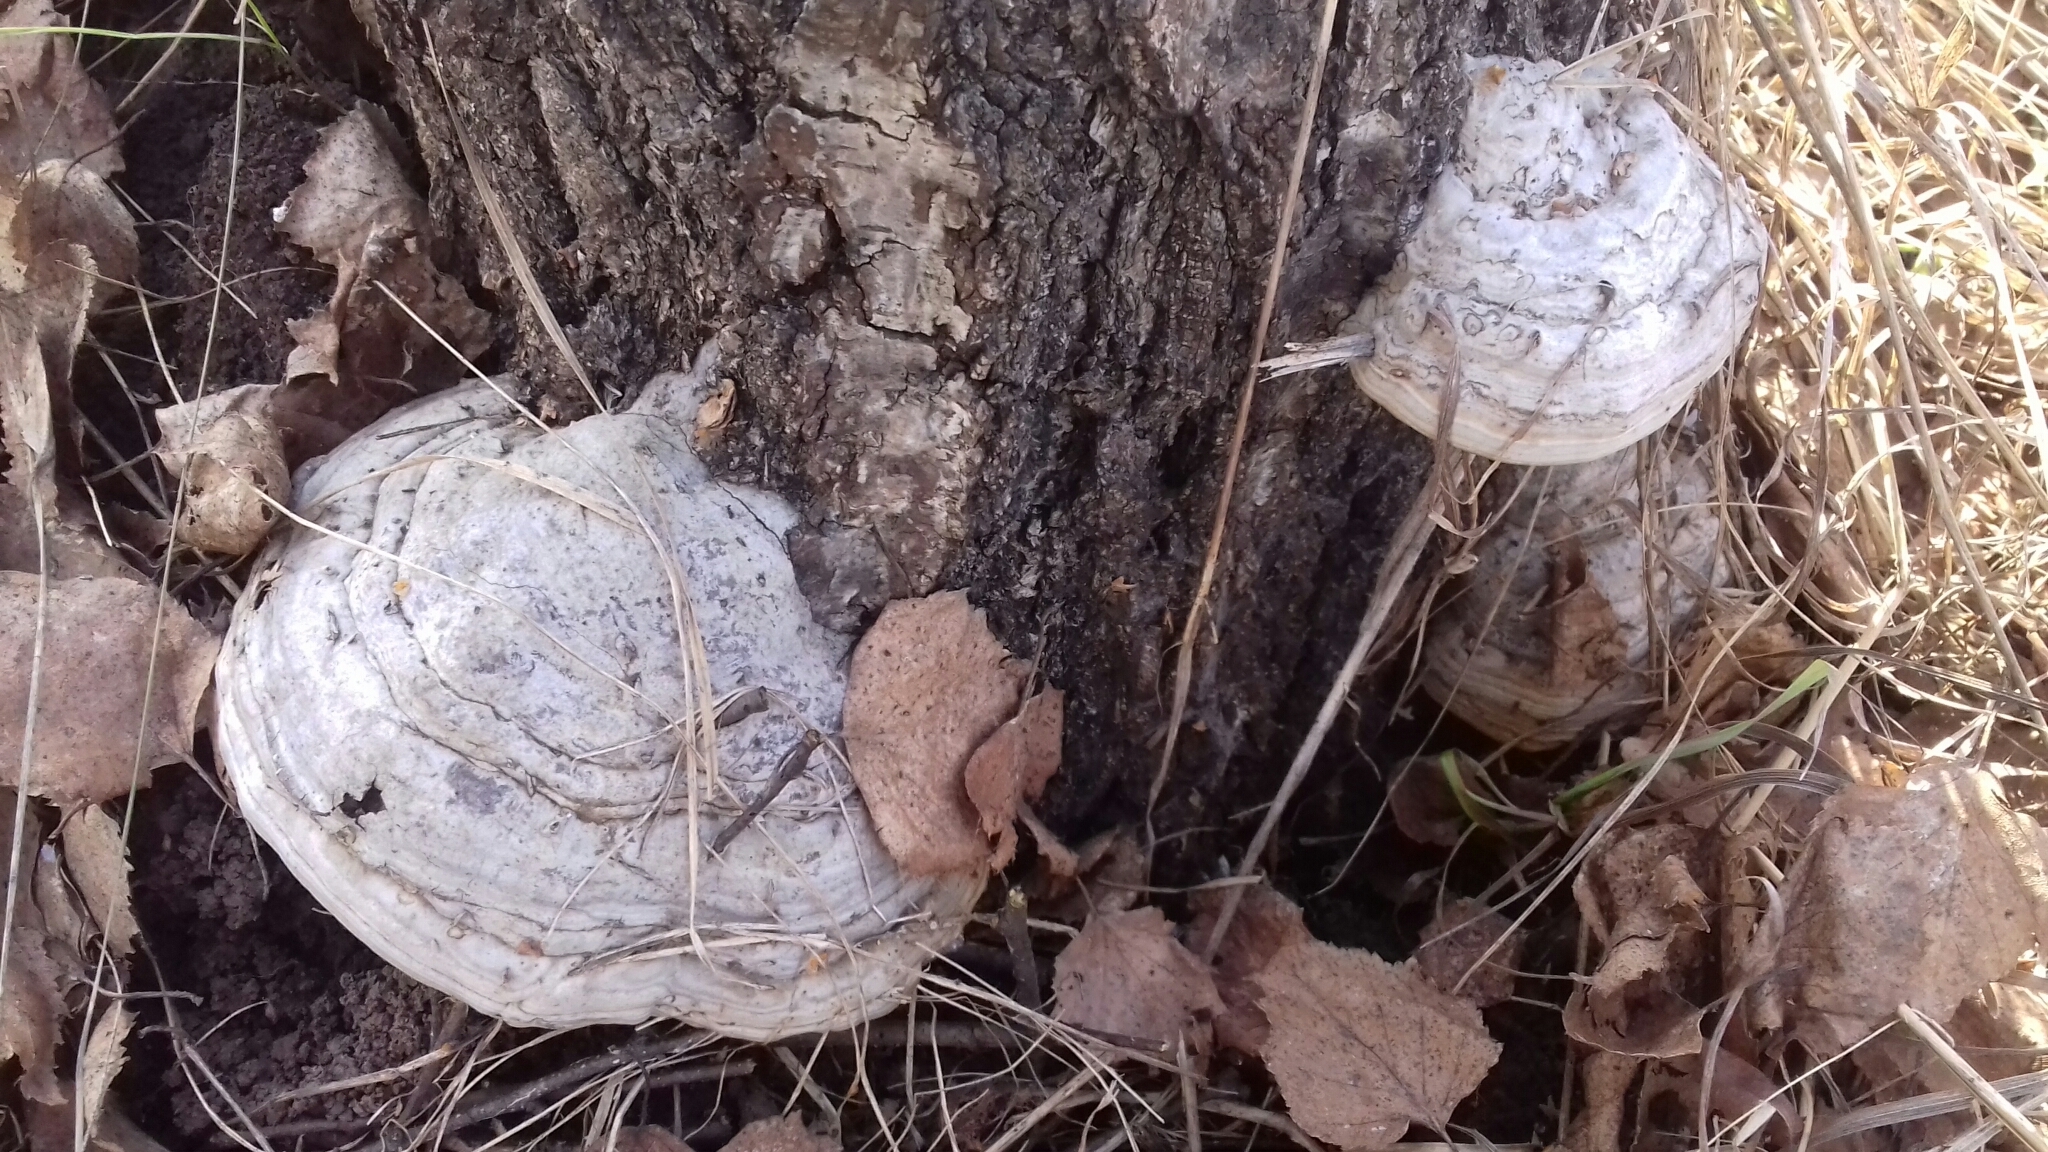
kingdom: Fungi
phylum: Basidiomycota
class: Agaricomycetes
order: Polyporales
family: Polyporaceae
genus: Fomes
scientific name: Fomes fomentarius
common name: Hoof fungus
